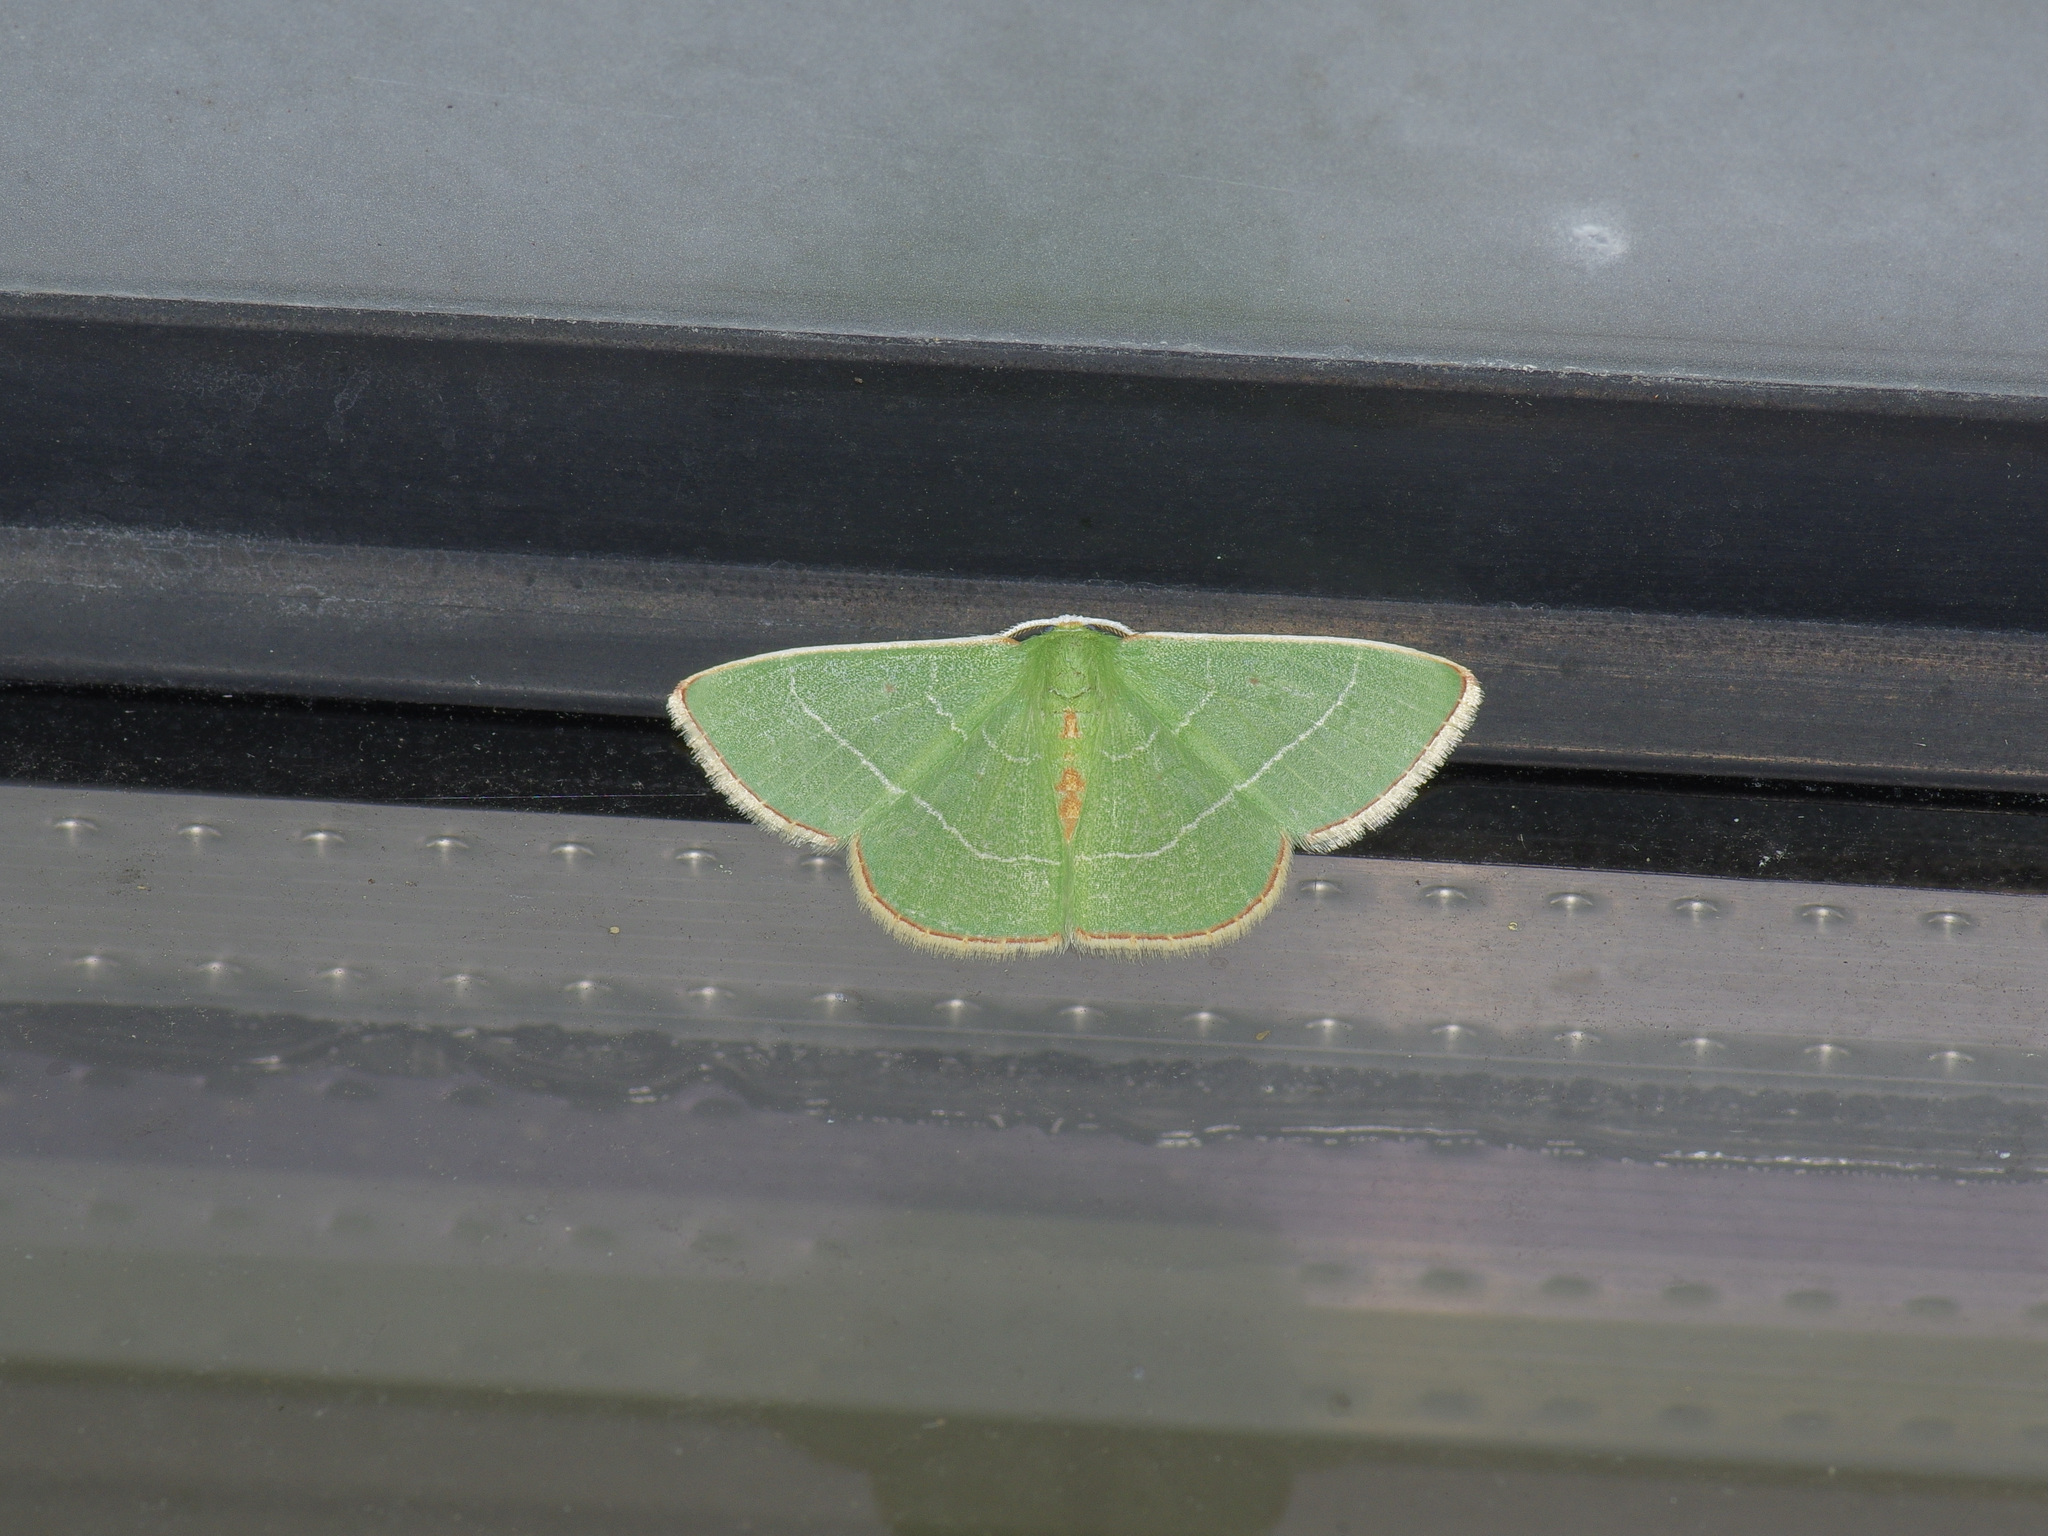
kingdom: Animalia
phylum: Arthropoda
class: Insecta
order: Lepidoptera
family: Geometridae
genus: Nemoria
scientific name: Nemoria bifilata
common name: White-barred emerald moth
